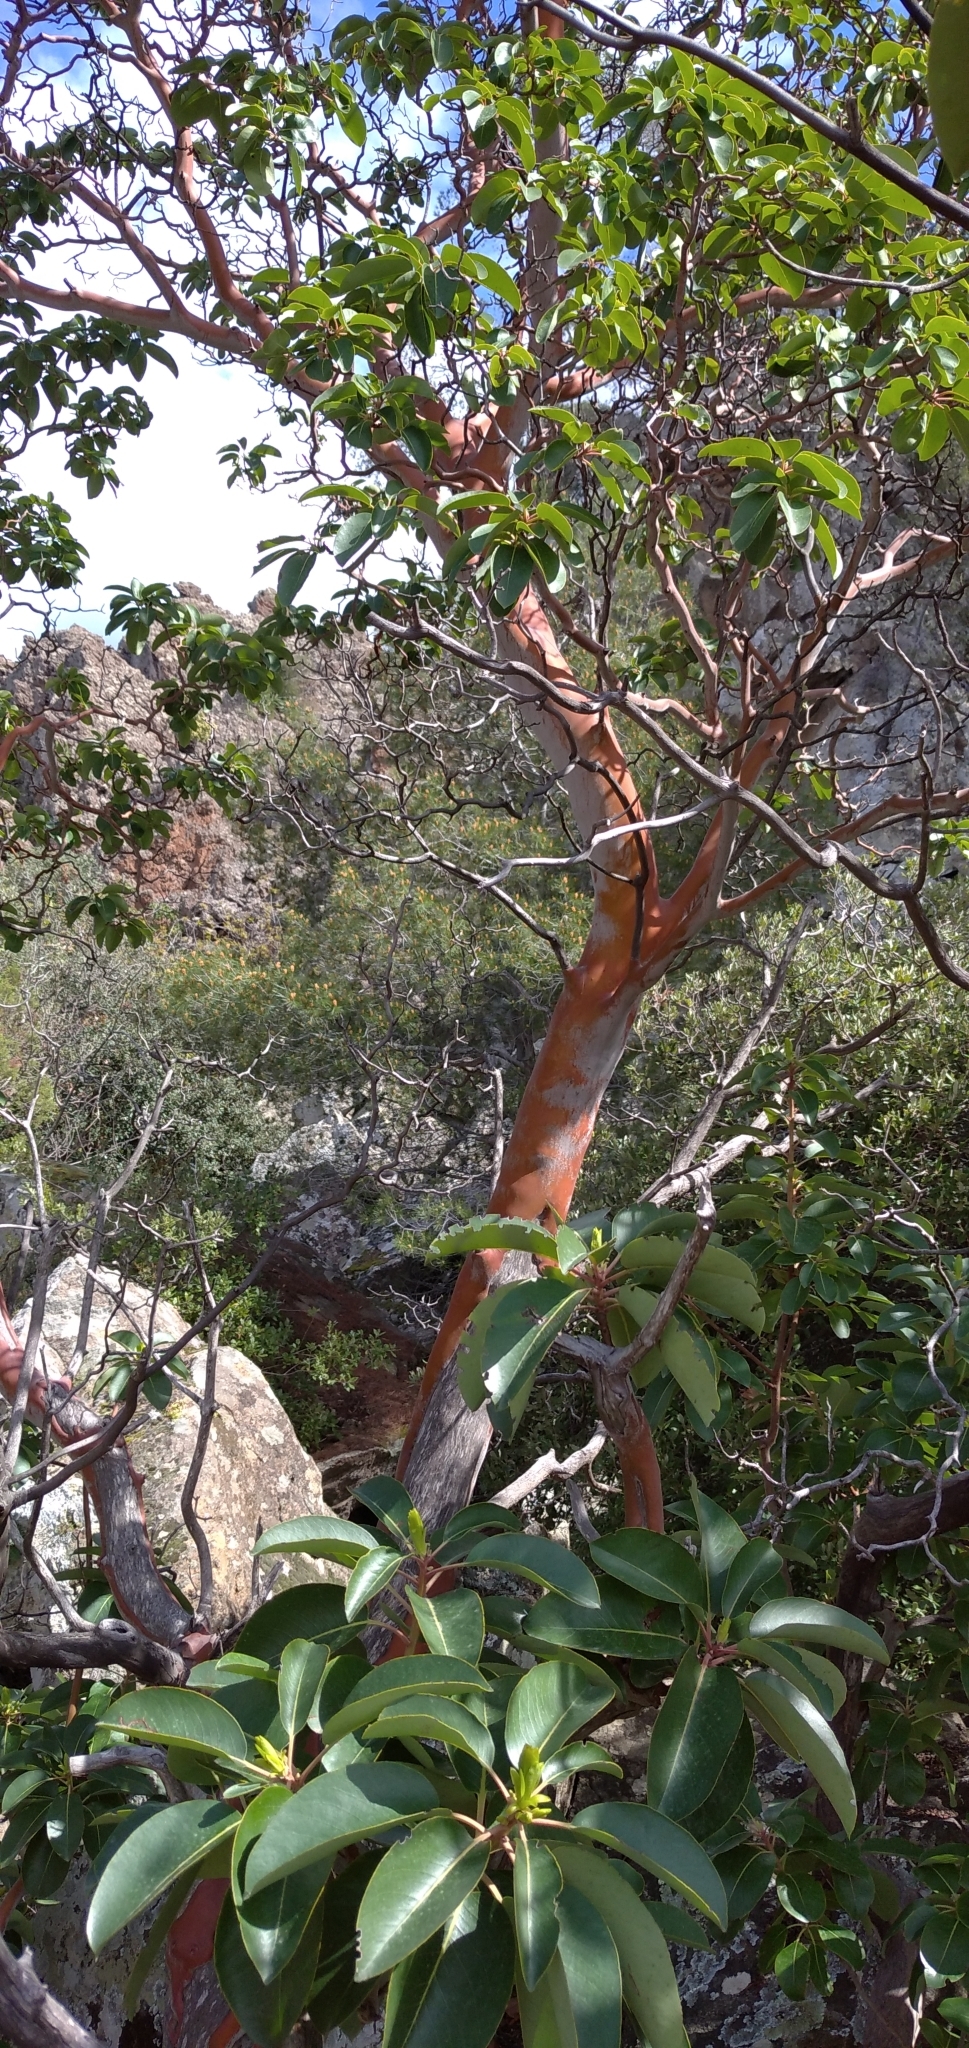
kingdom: Plantae
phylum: Tracheophyta
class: Magnoliopsida
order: Ericales
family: Ericaceae
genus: Arbutus
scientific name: Arbutus andrachne
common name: Greek strawberry tree
